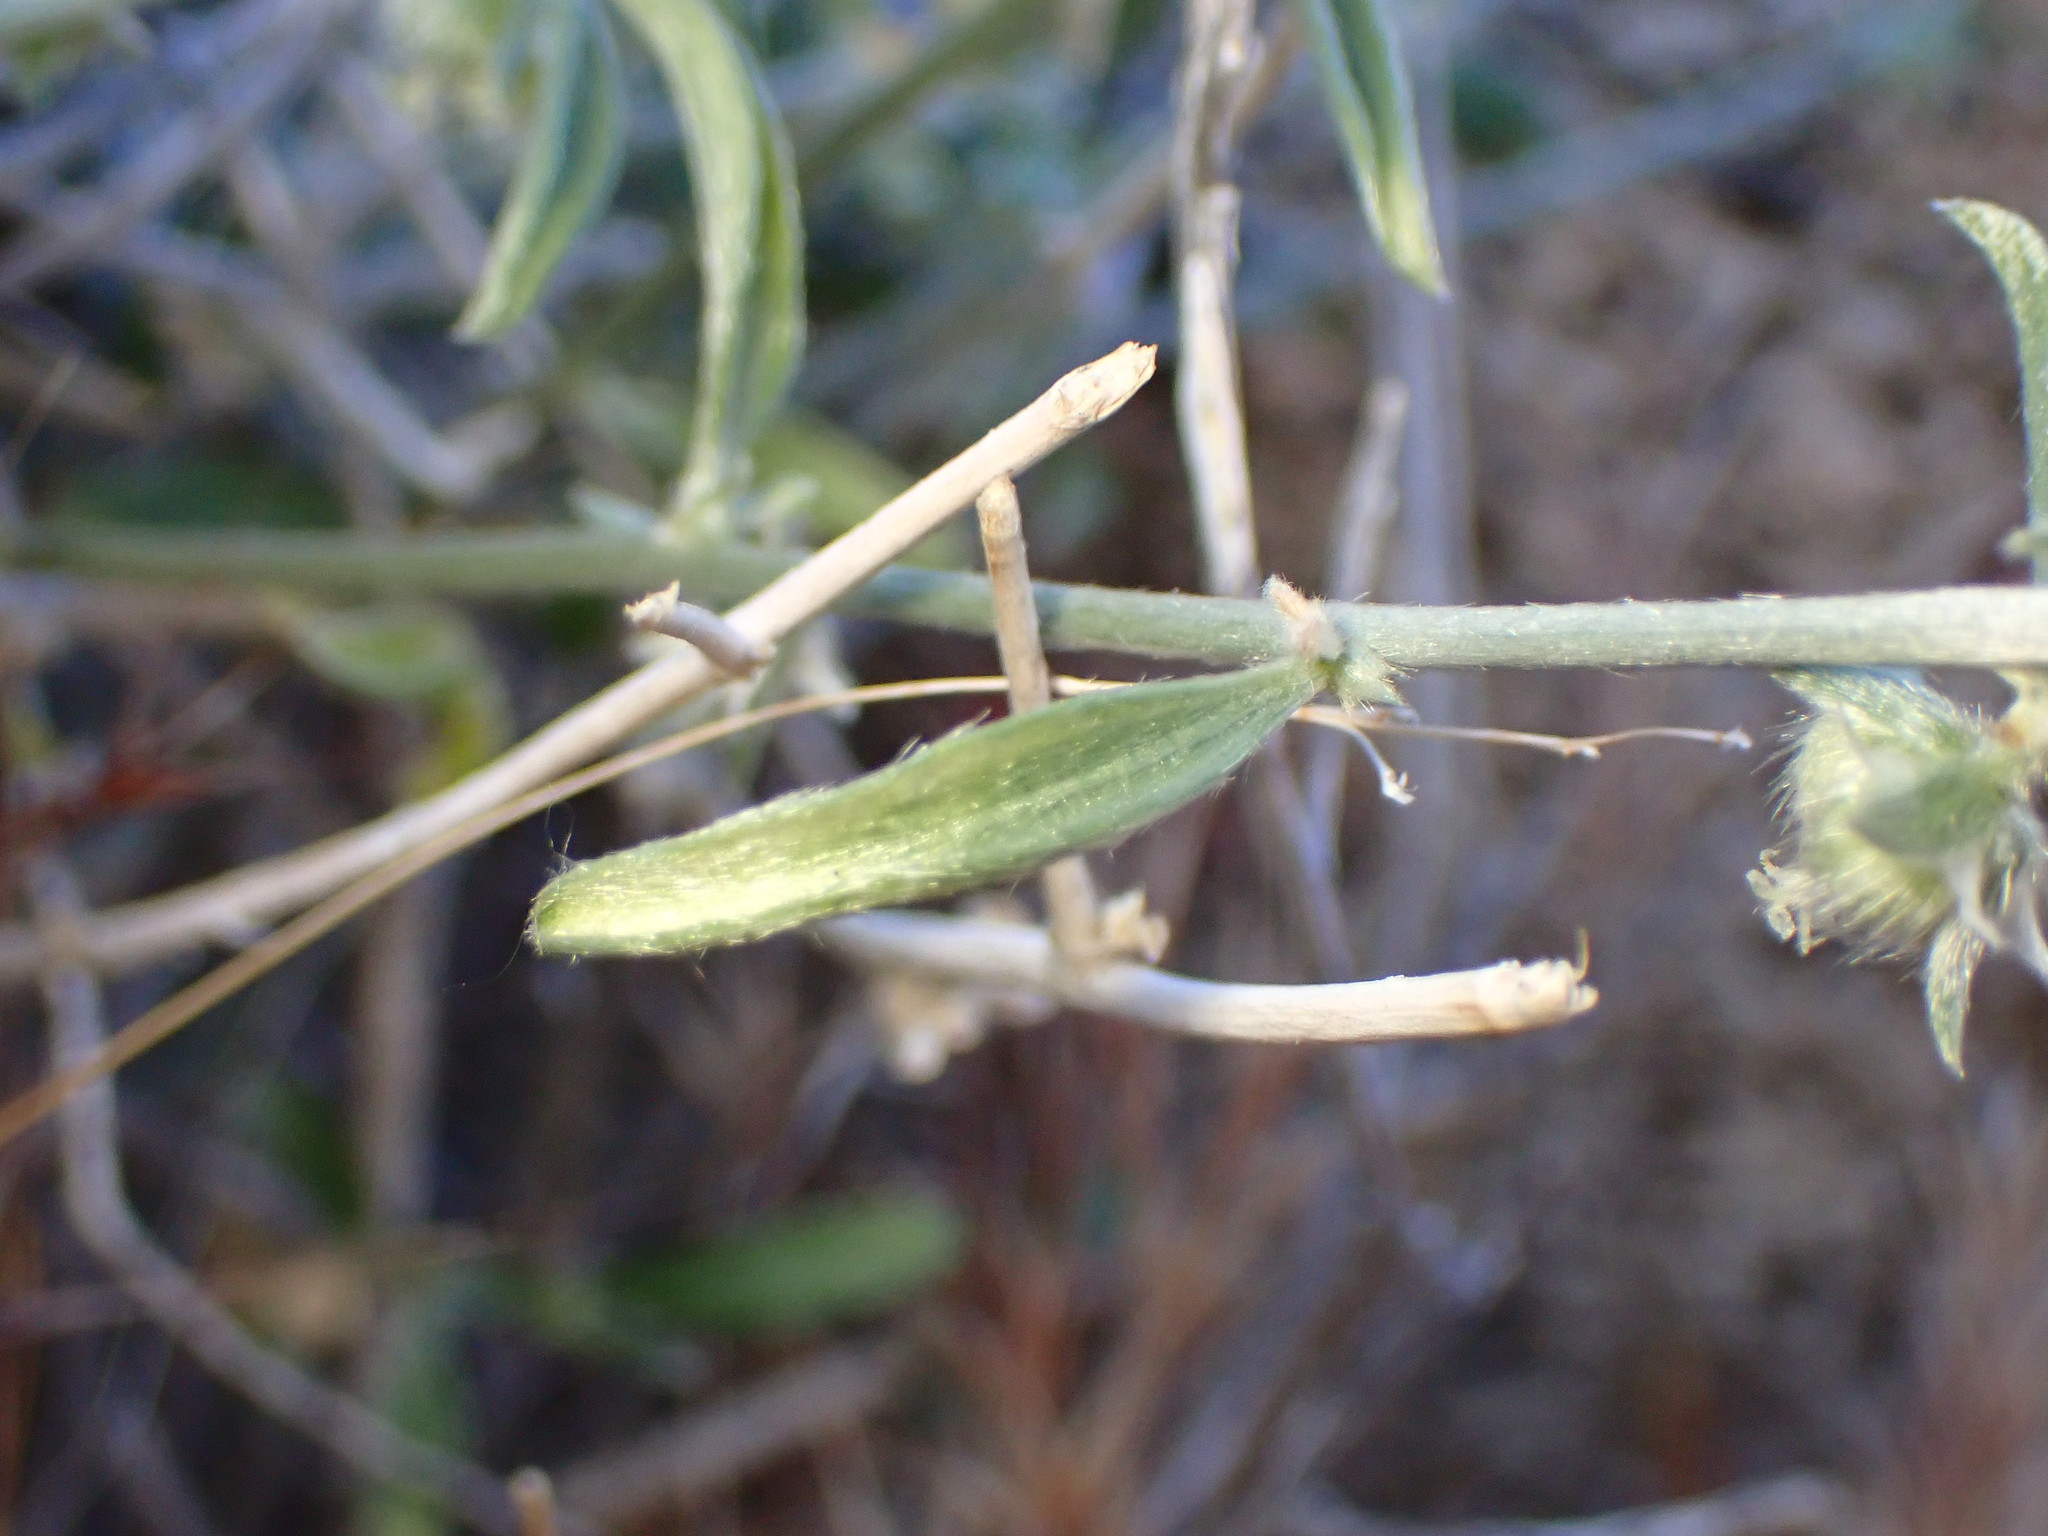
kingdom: Plantae
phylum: Tracheophyta
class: Magnoliopsida
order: Malpighiales
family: Euphorbiaceae
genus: Ditaxis
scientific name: Ditaxis lanceolata
